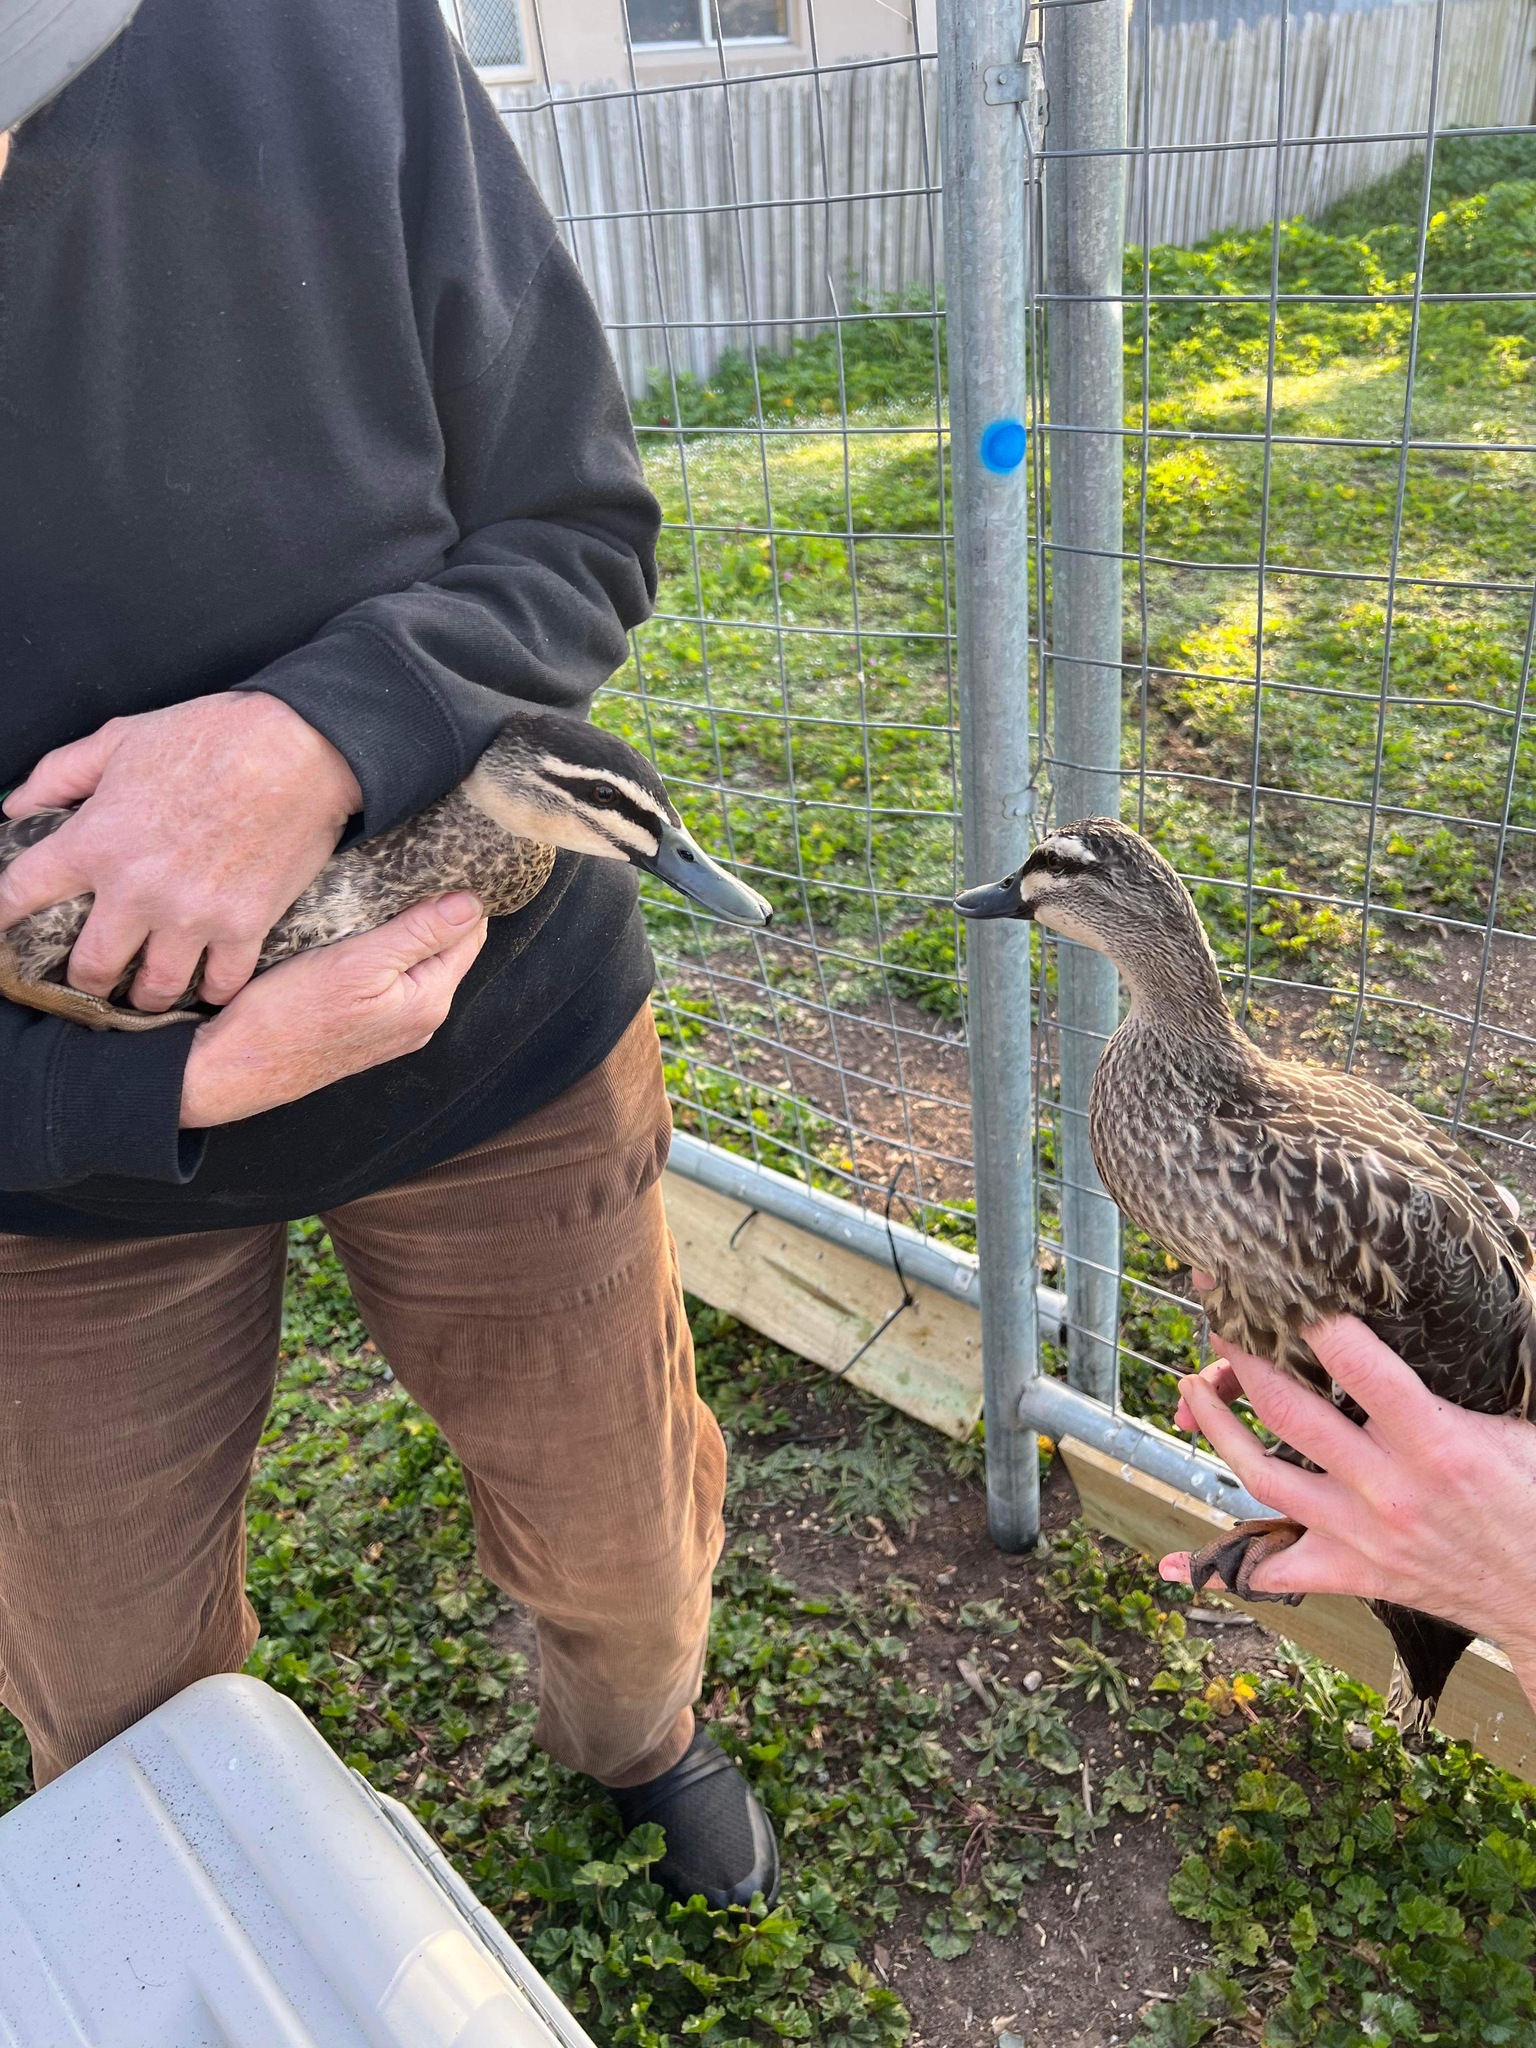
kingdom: Animalia
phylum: Chordata
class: Aves
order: Anseriformes
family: Anatidae
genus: Anas
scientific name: Anas
